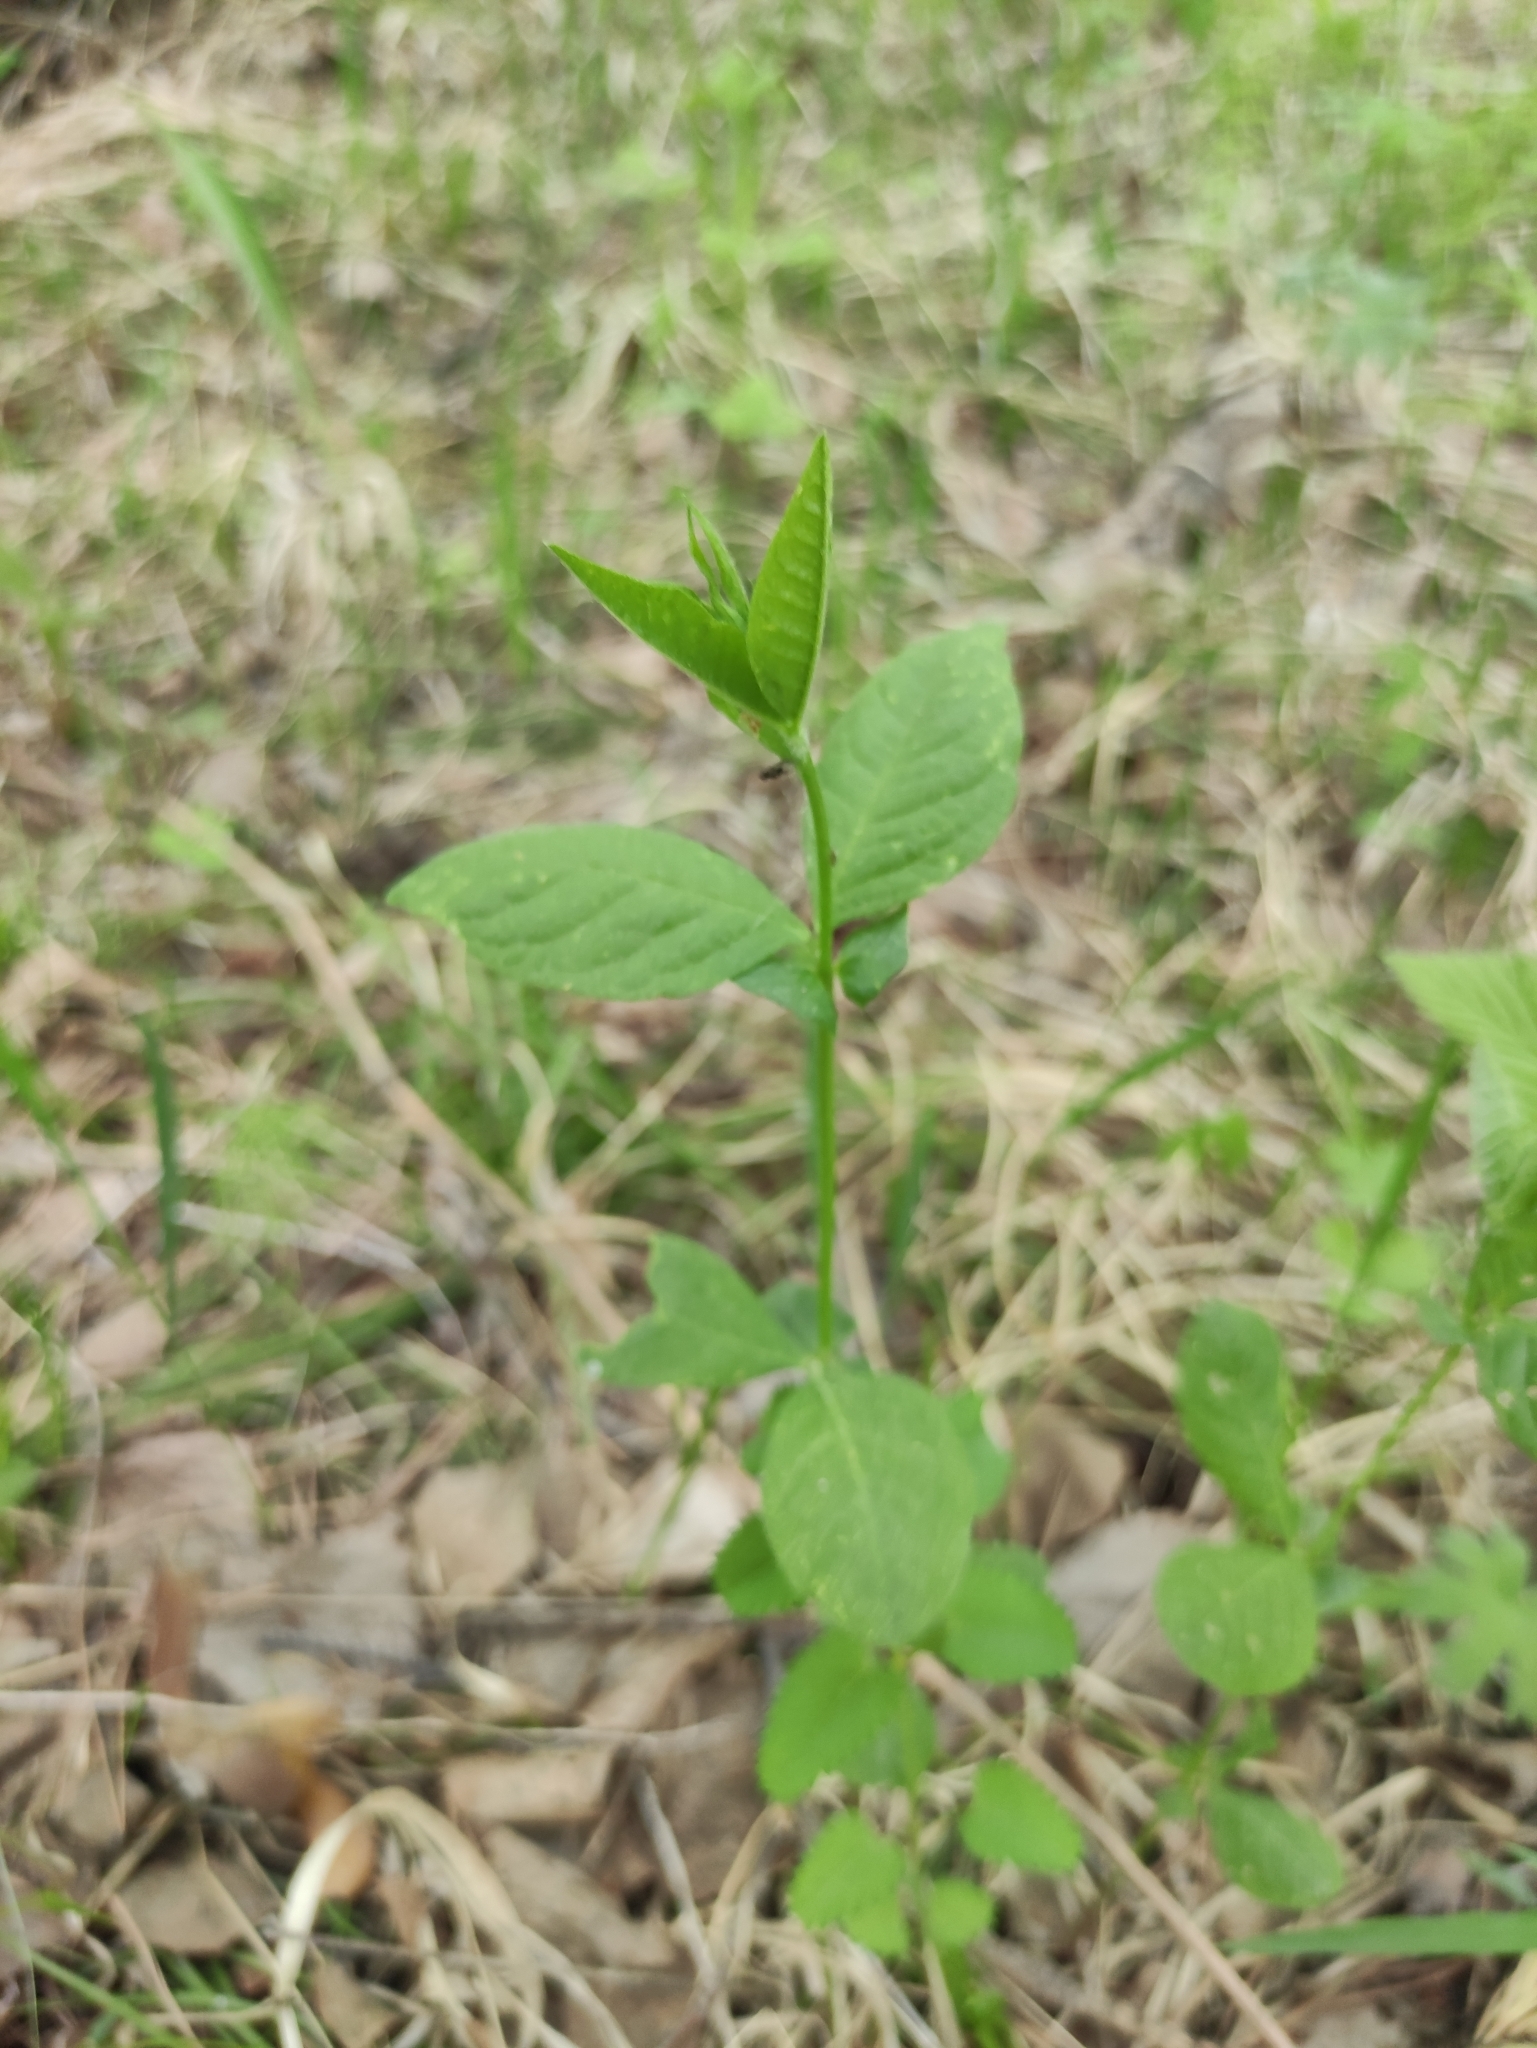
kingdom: Plantae
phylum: Tracheophyta
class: Magnoliopsida
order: Fabales
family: Fabaceae
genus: Vicia
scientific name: Vicia unijuga
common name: Two-leaf vetch
